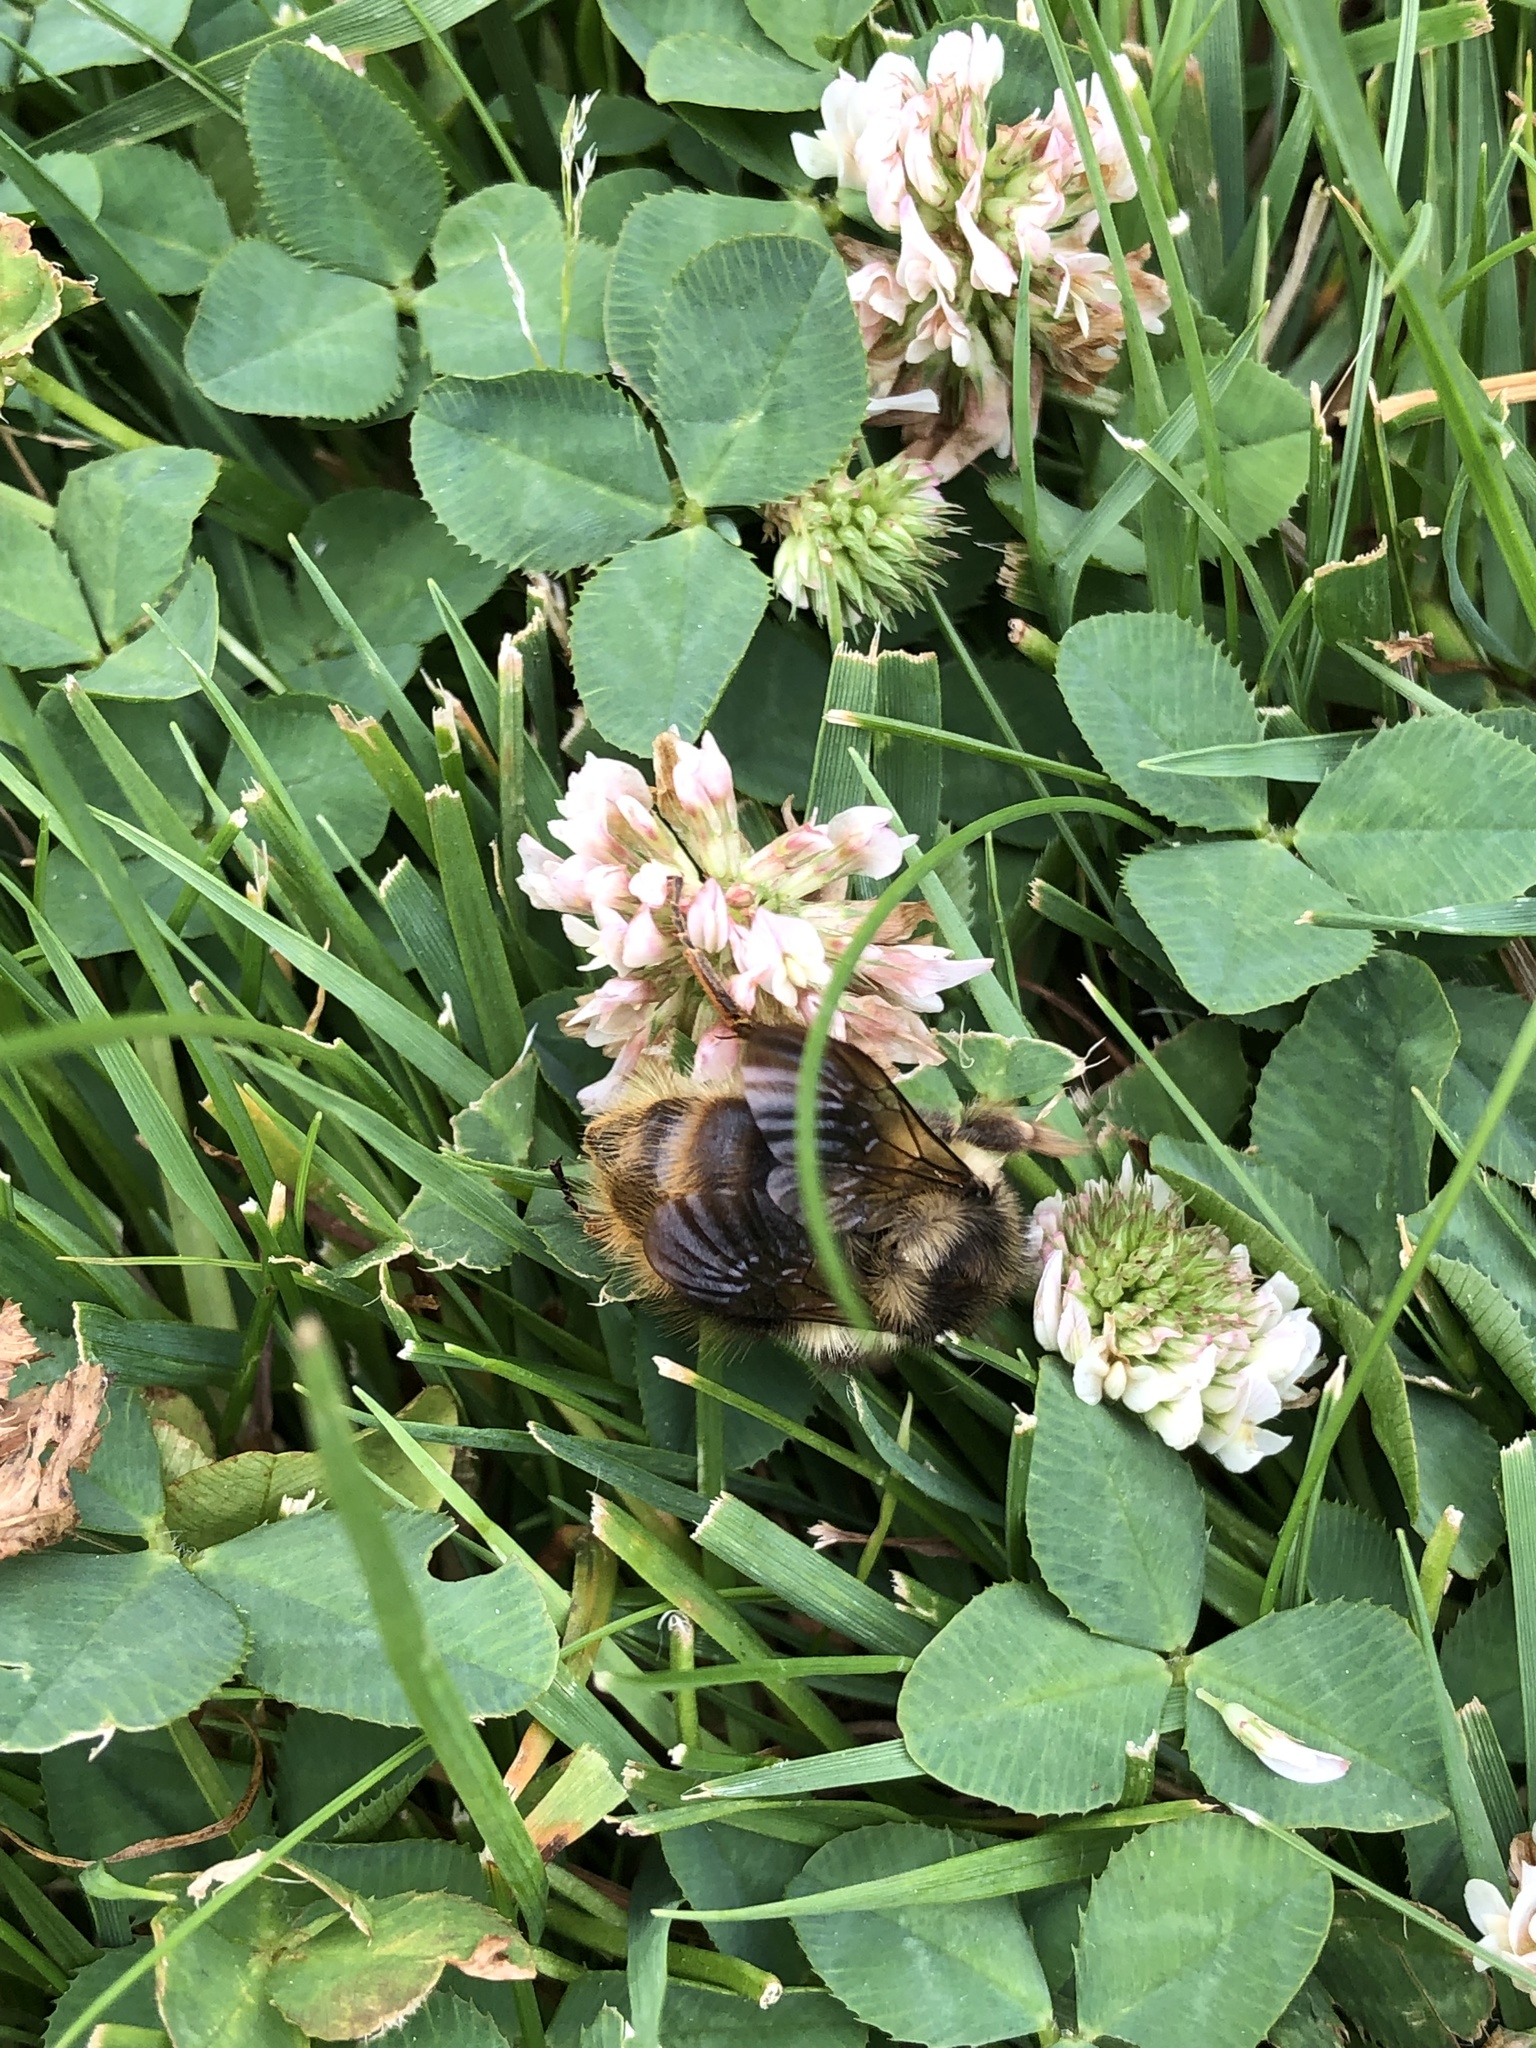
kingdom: Animalia
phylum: Arthropoda
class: Insecta
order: Hymenoptera
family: Apidae
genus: Bombus
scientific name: Bombus mixtus
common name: Fuzzy-horned bumble bee
